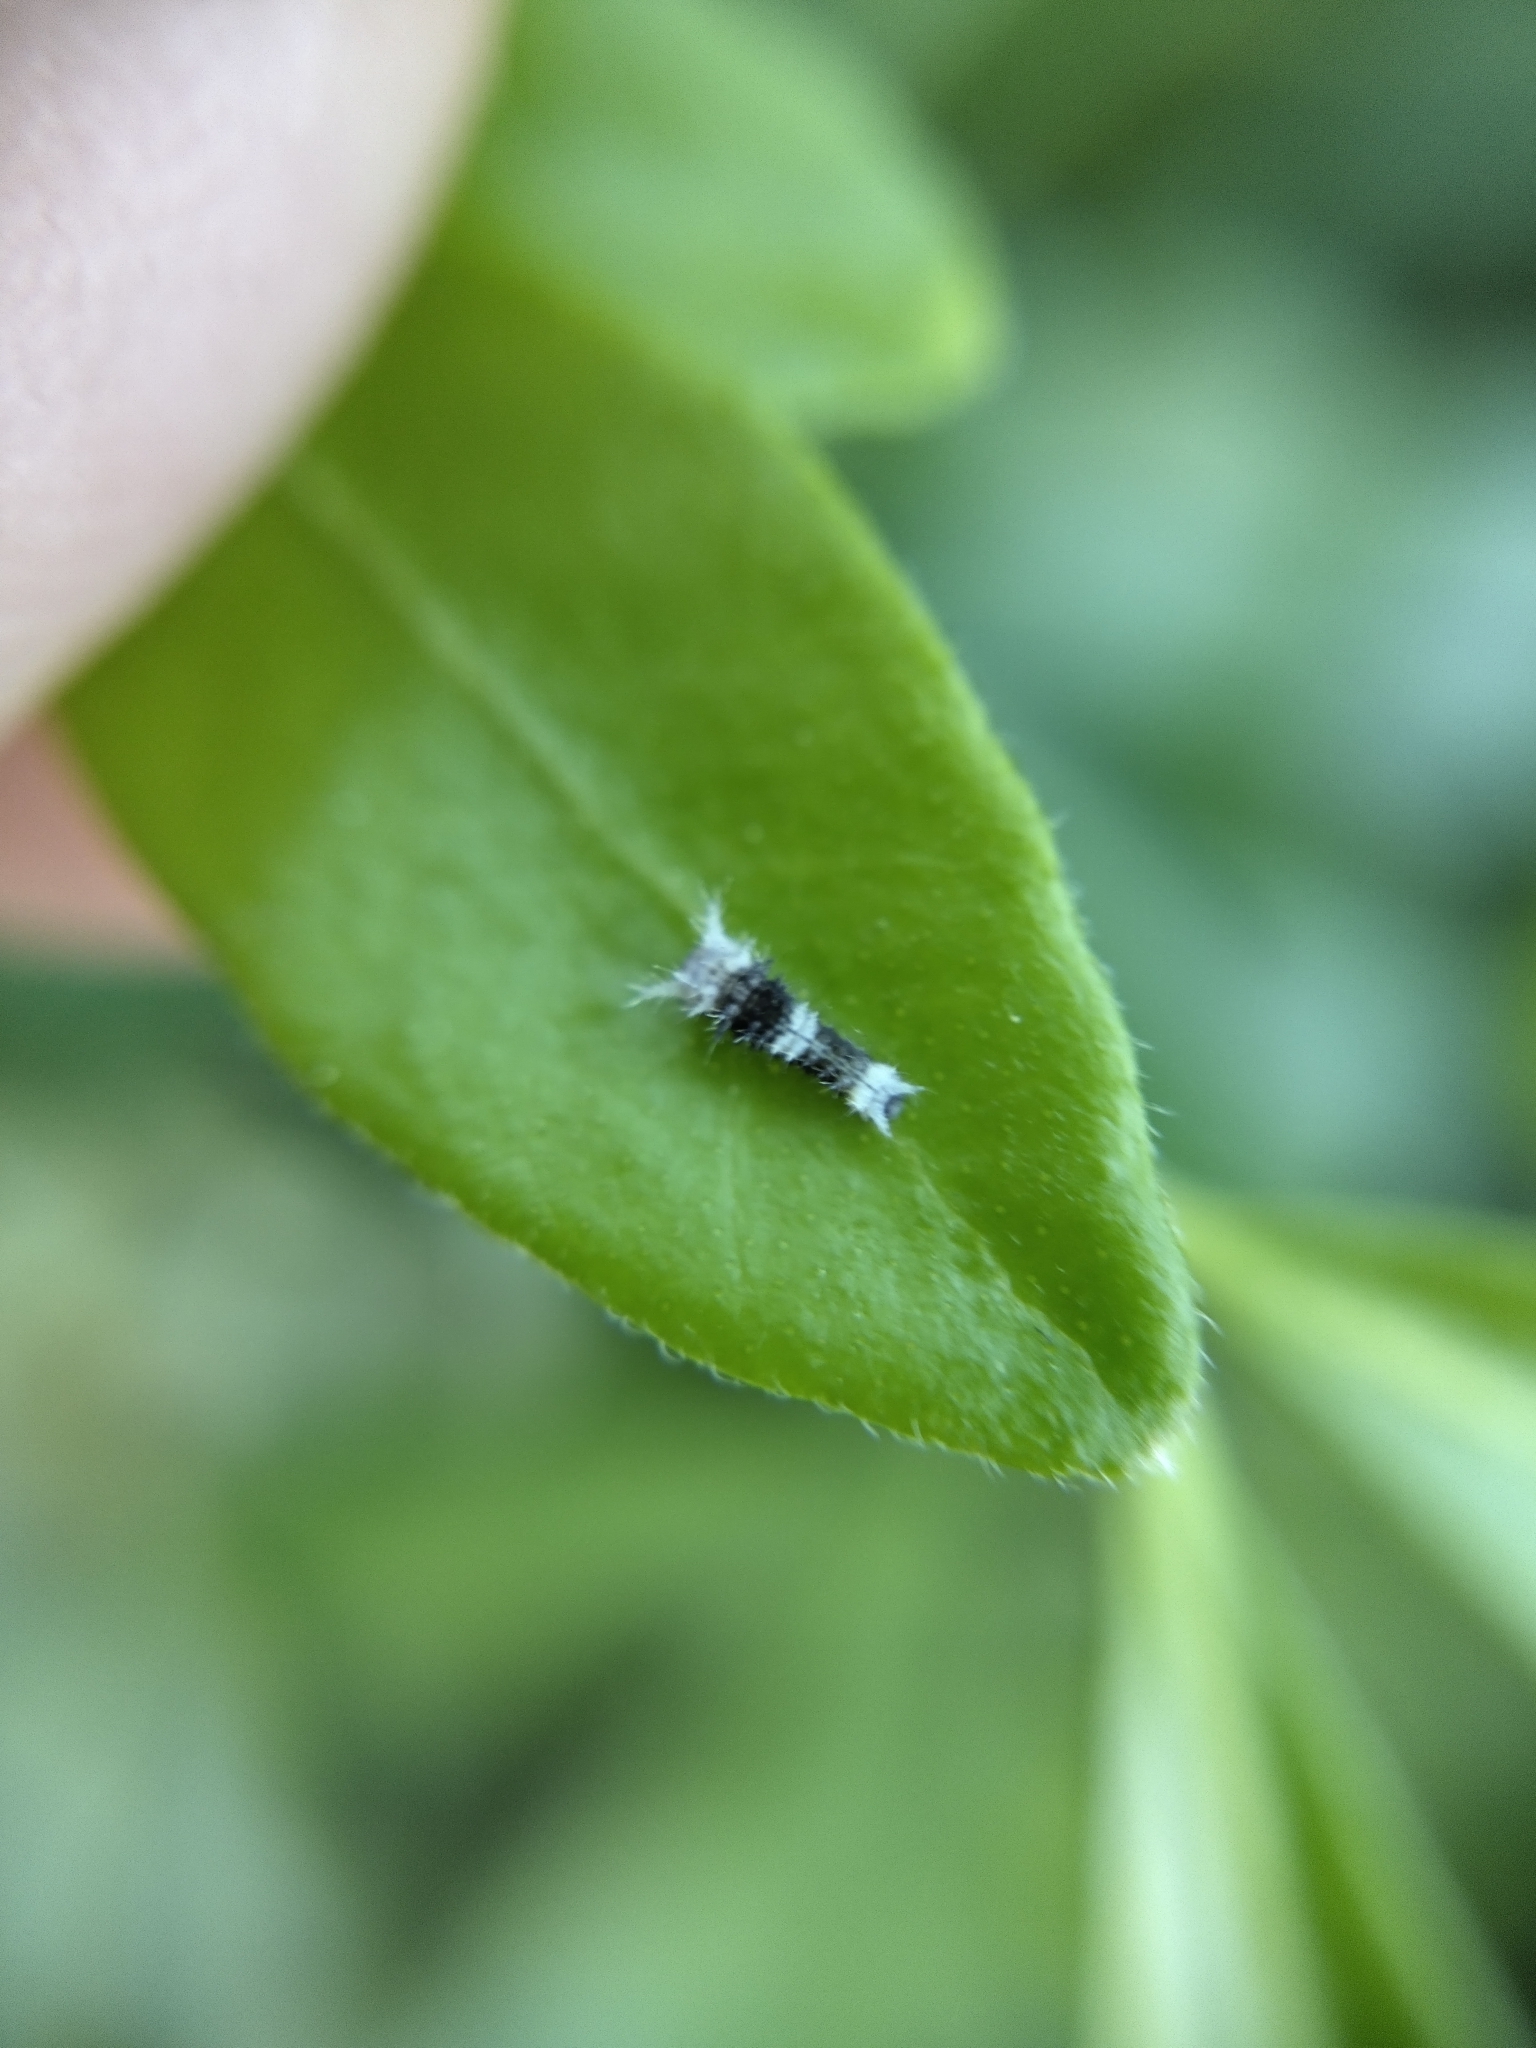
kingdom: Animalia
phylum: Arthropoda
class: Insecta
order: Lepidoptera
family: Papilionidae
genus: Papilio
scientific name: Papilio aegeus
